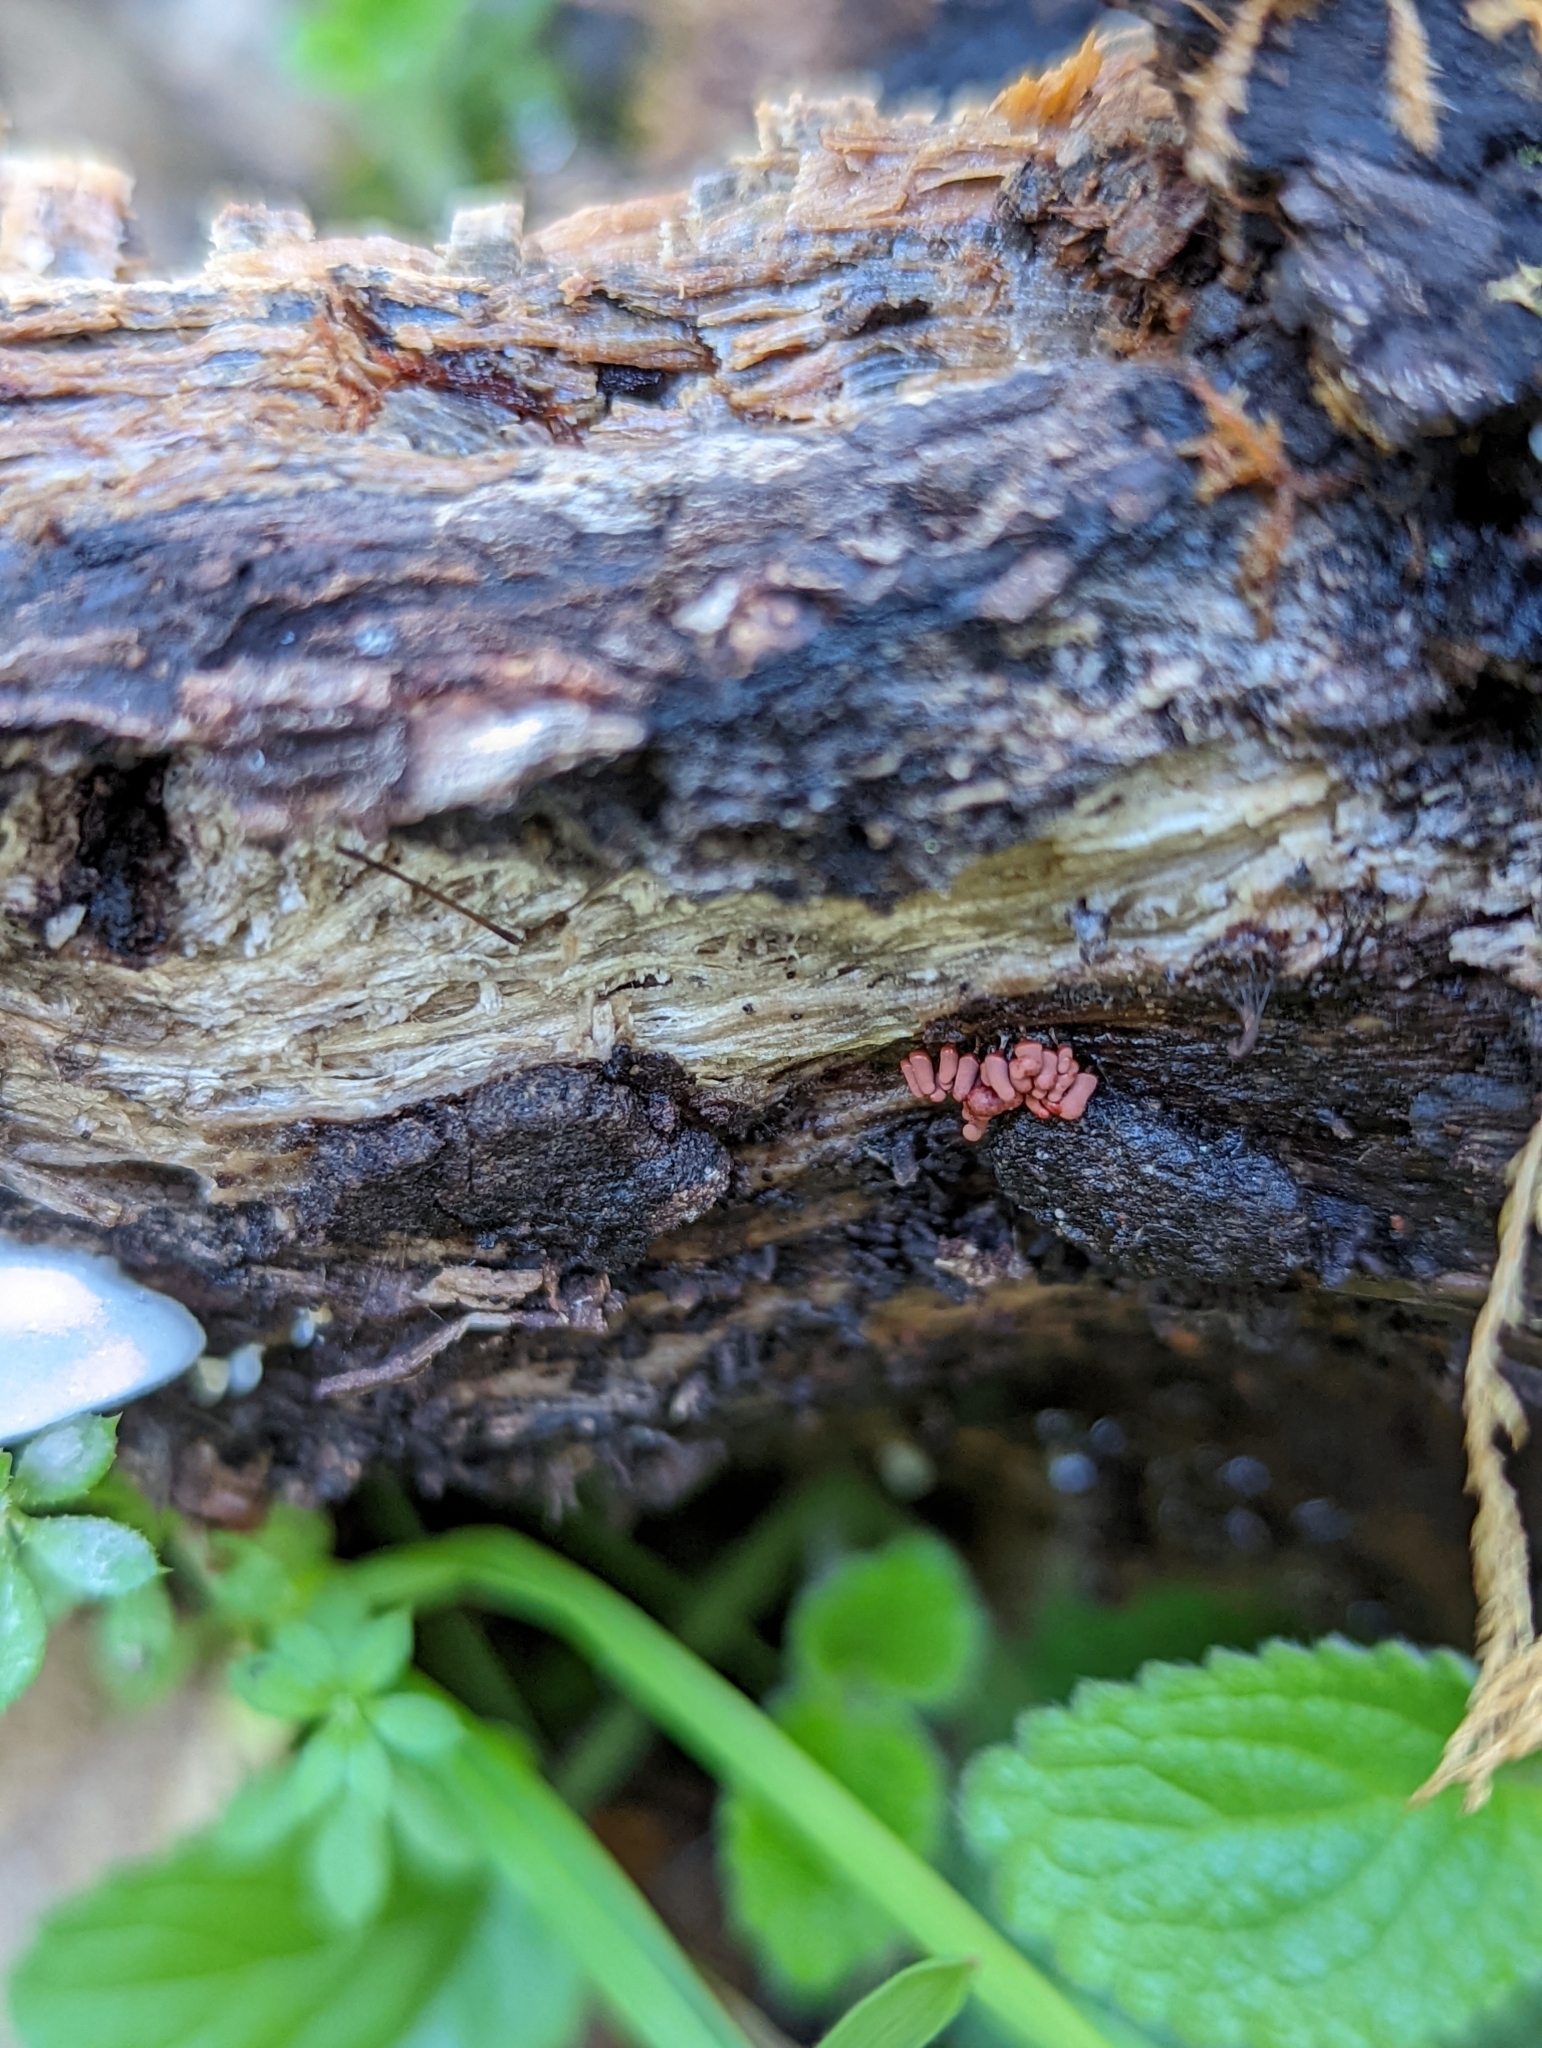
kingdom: Protozoa
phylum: Mycetozoa
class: Myxomycetes
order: Trichiales
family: Arcyriaceae
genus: Arcyria
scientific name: Arcyria denudata
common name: Carnival candy slime mold
